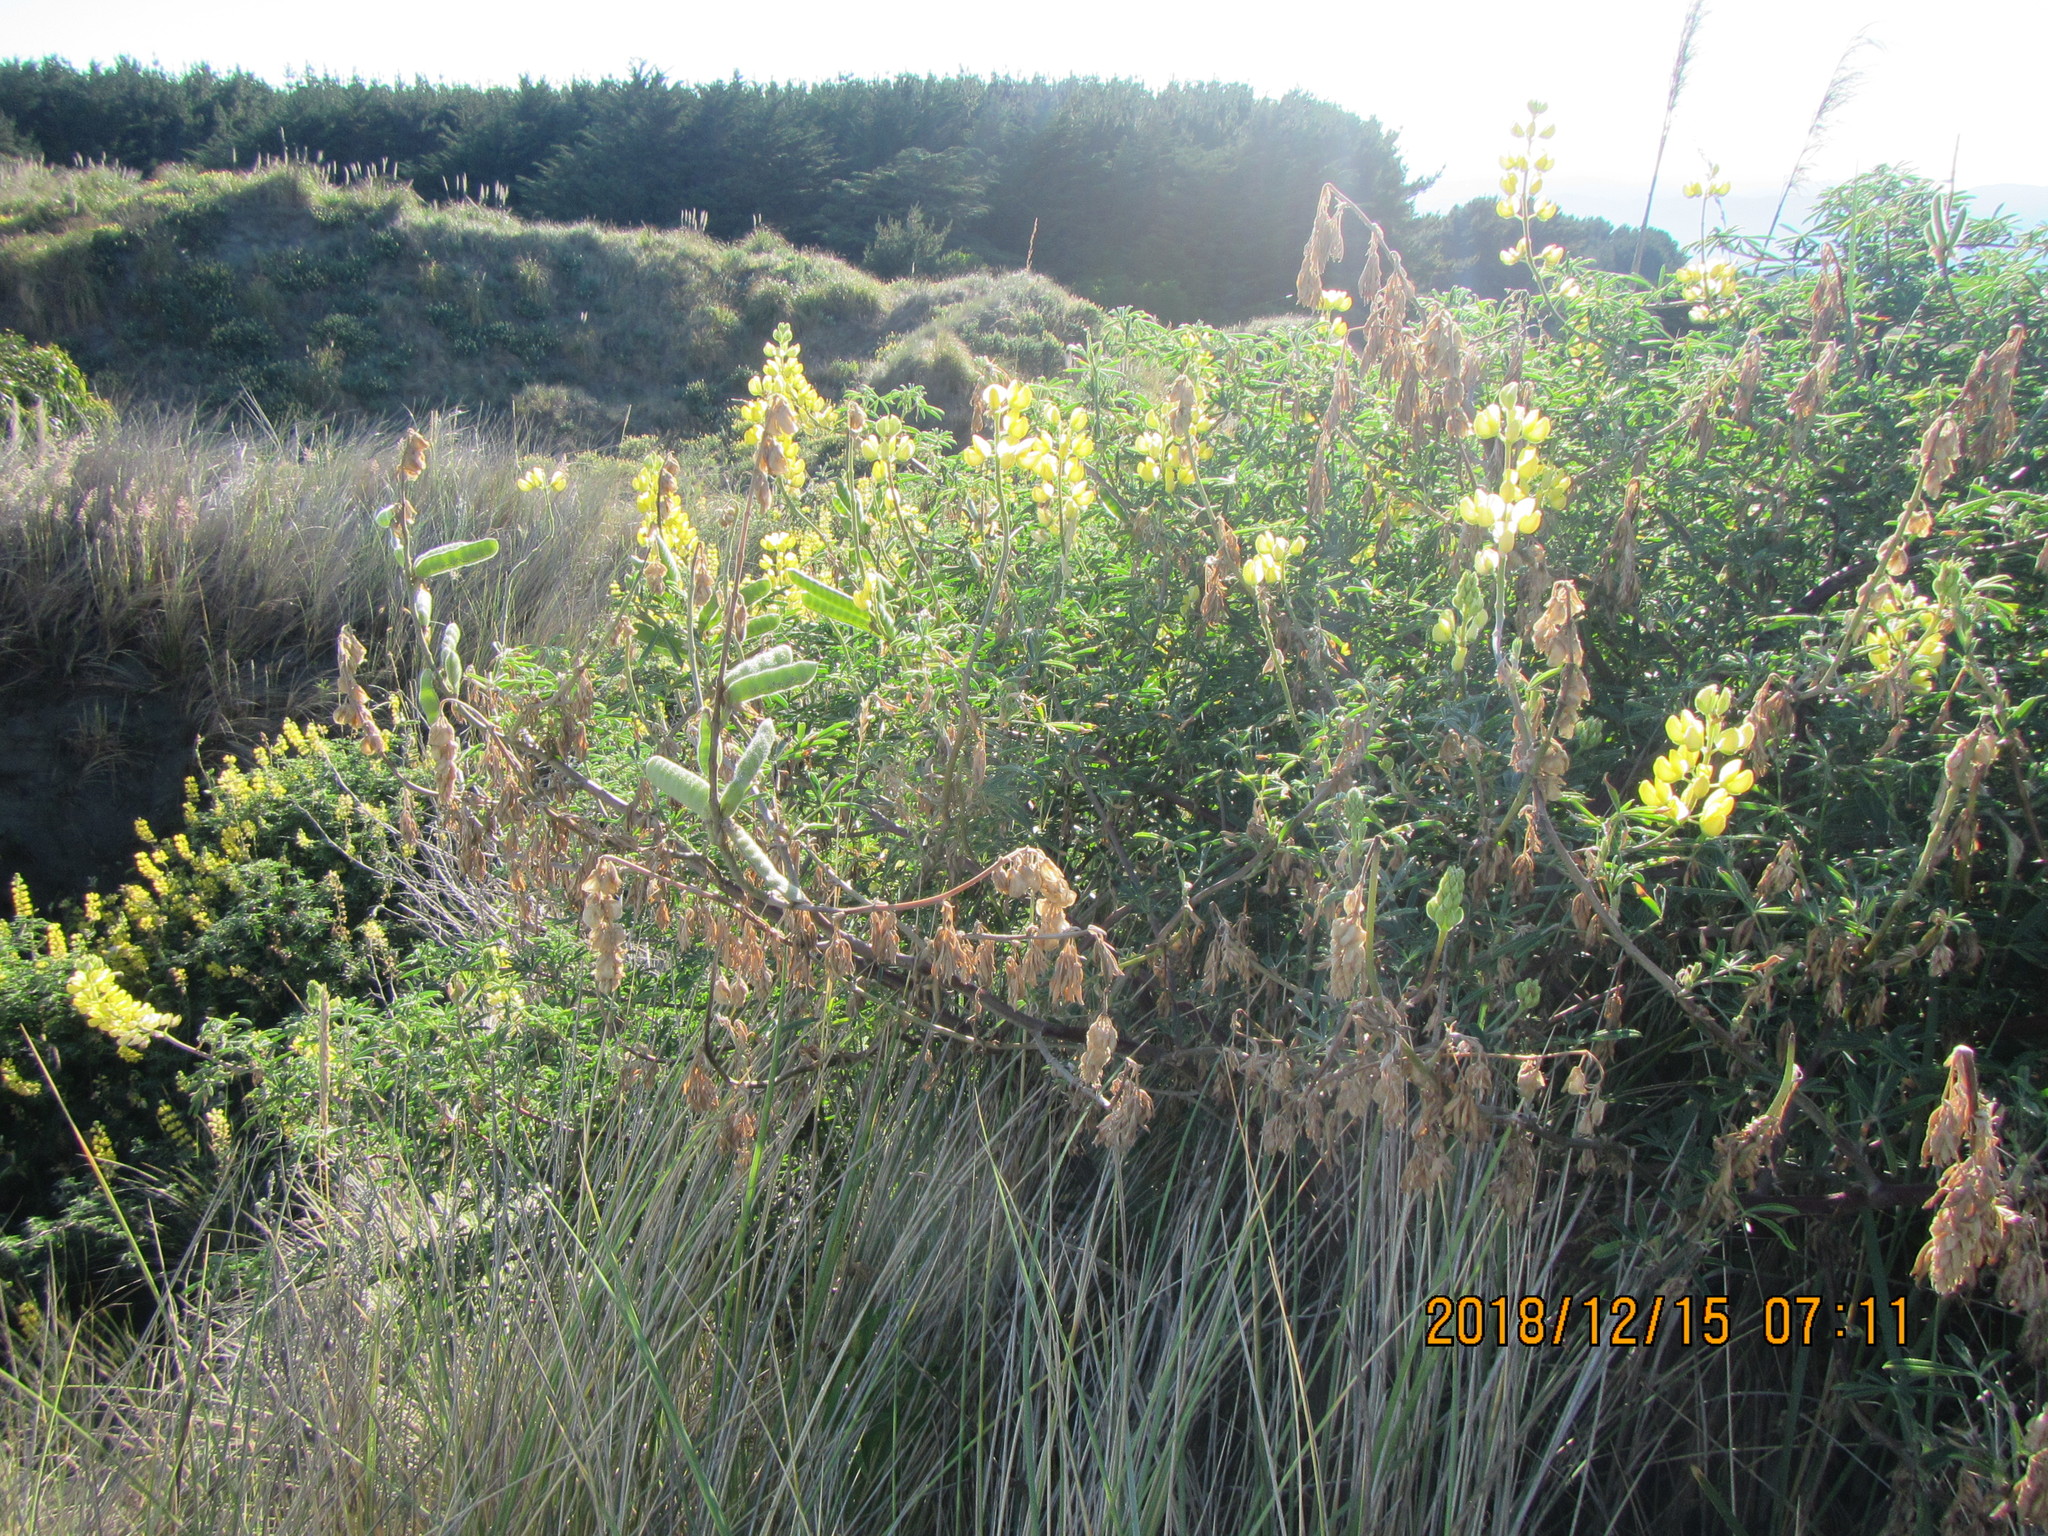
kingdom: Plantae
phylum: Tracheophyta
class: Magnoliopsida
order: Fabales
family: Fabaceae
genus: Lupinus
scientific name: Lupinus arboreus
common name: Yellow bush lupine
